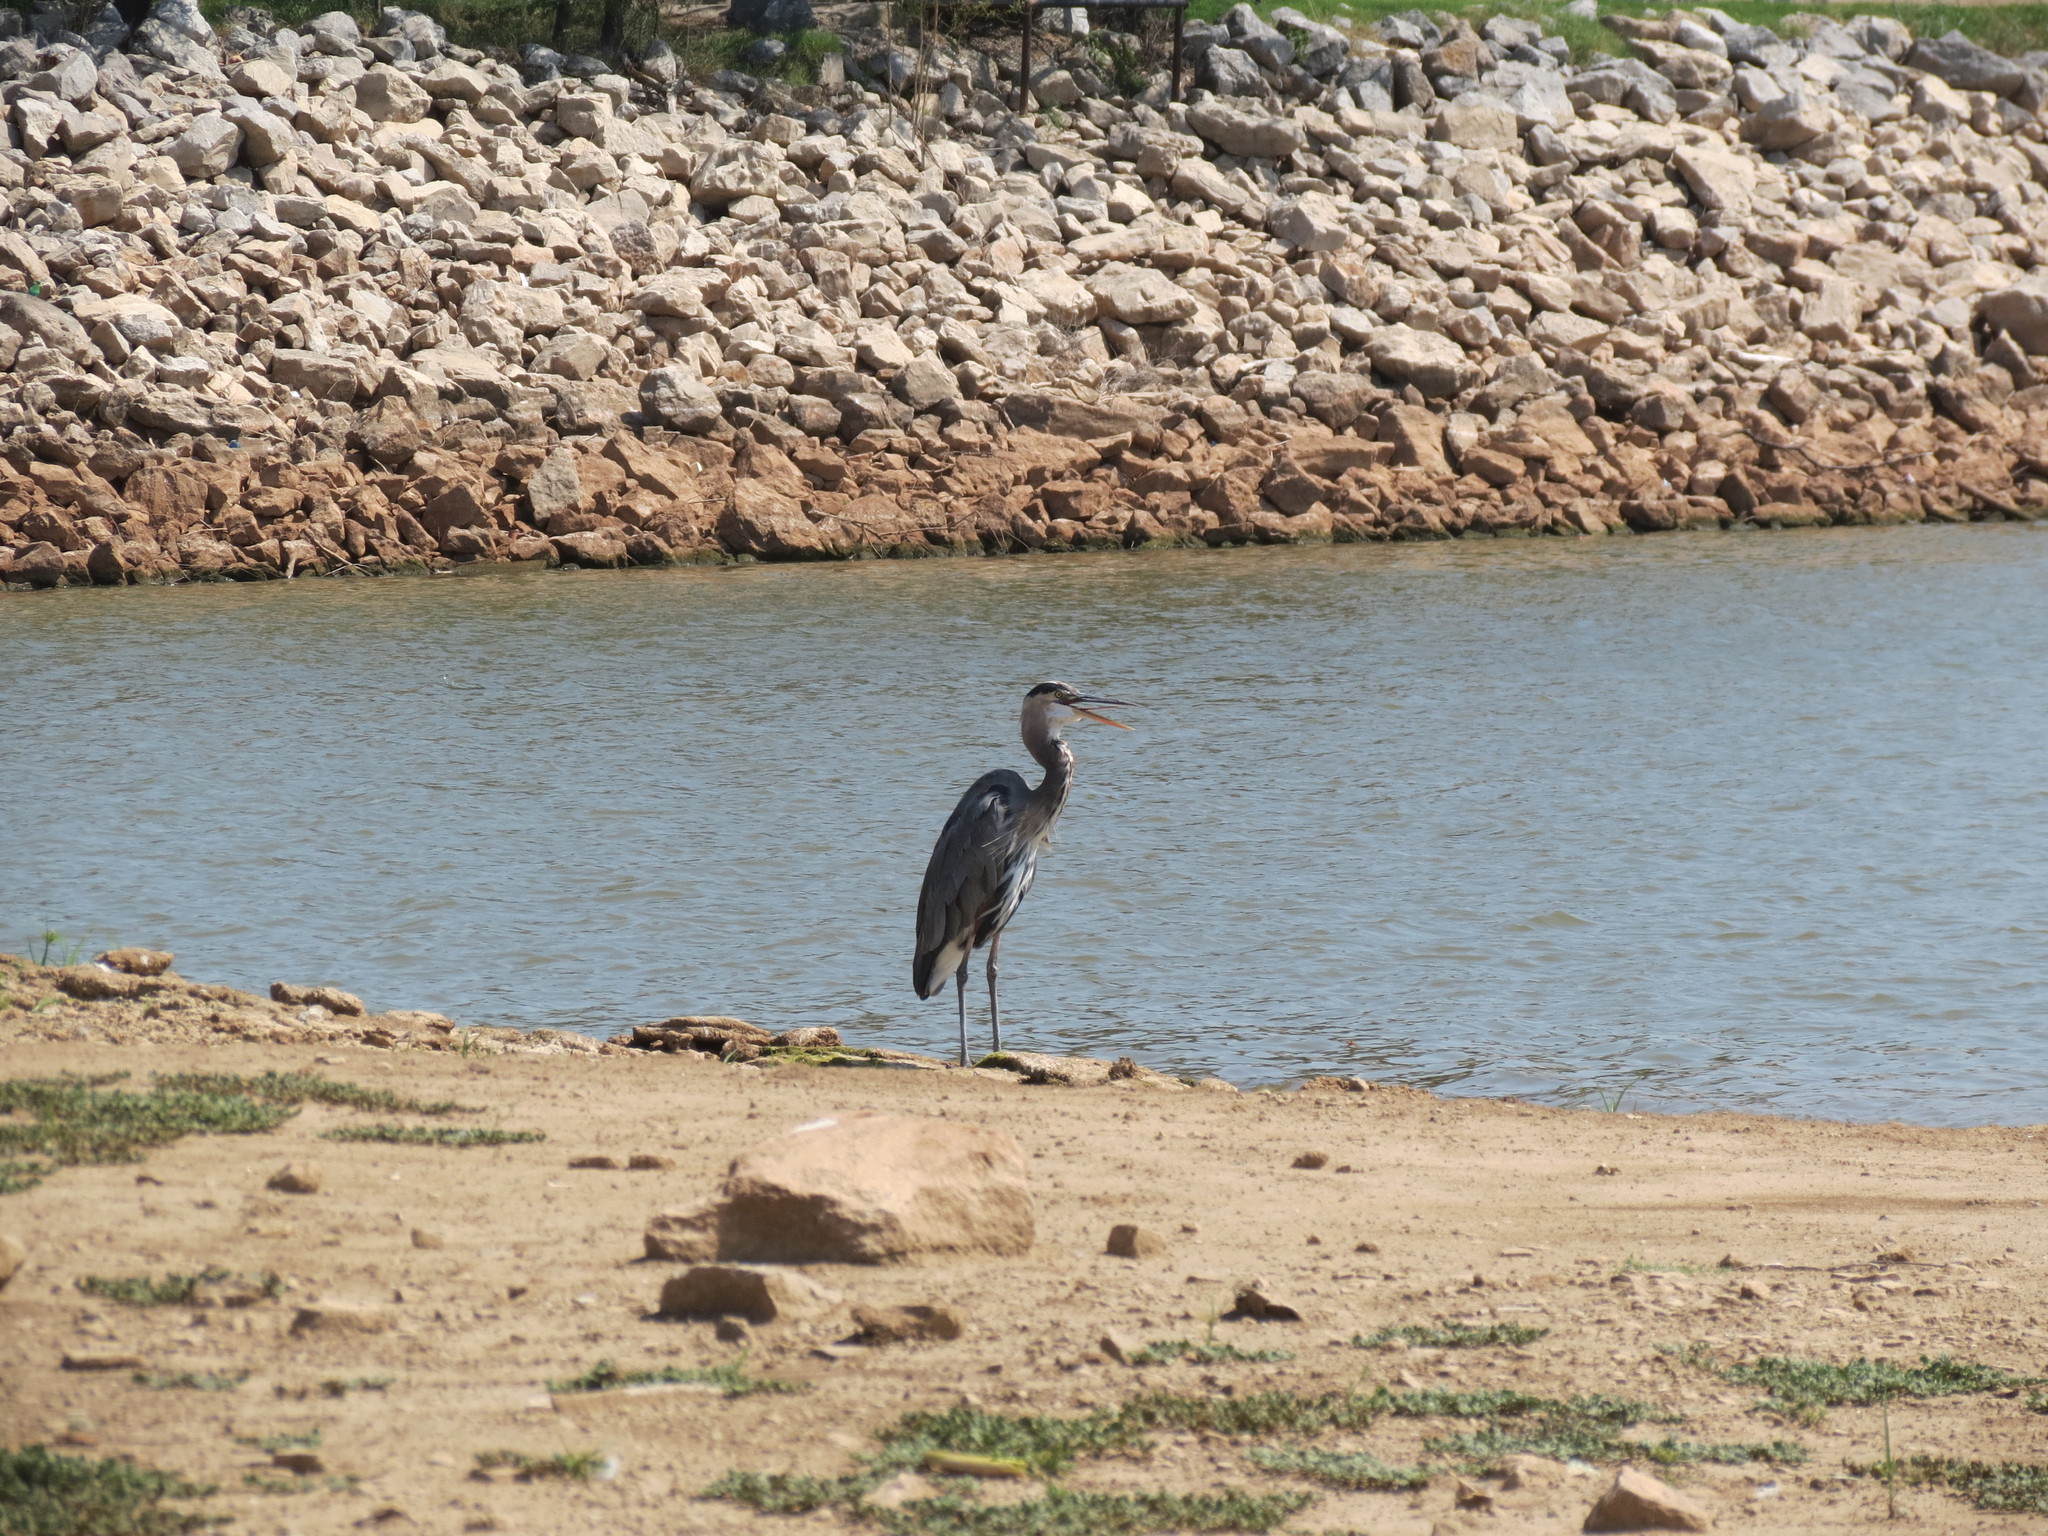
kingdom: Animalia
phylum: Chordata
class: Aves
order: Pelecaniformes
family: Ardeidae
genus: Ardea
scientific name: Ardea herodias
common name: Great blue heron
